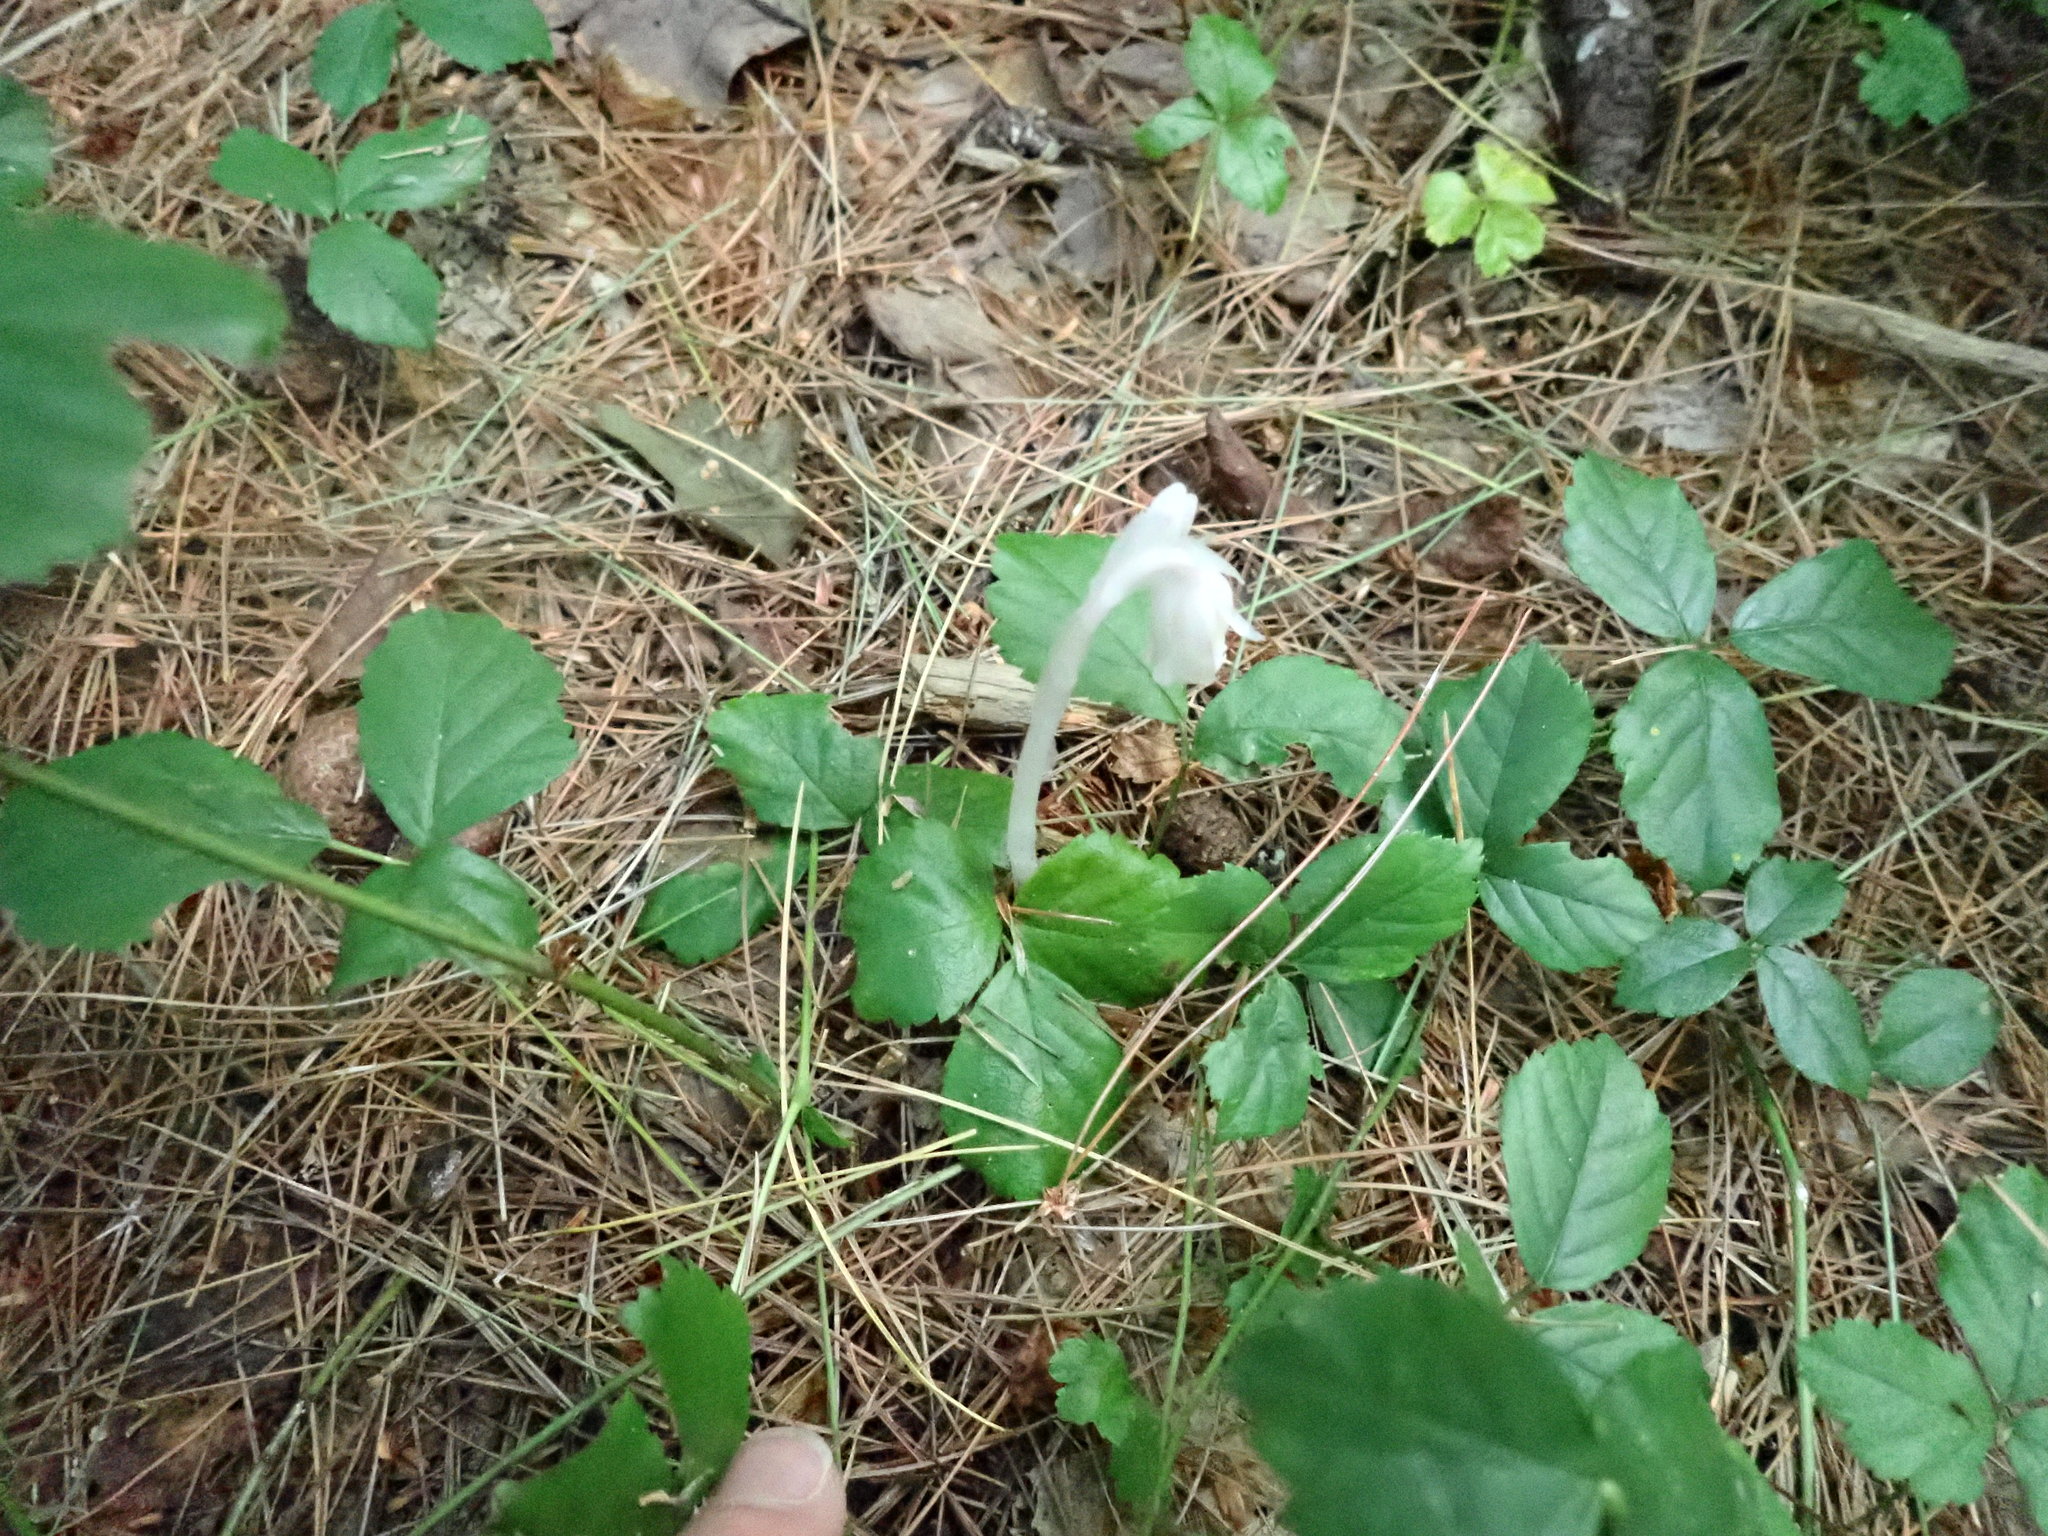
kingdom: Plantae
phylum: Tracheophyta
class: Magnoliopsida
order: Ericales
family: Ericaceae
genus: Monotropa
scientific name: Monotropa uniflora
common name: Convulsion root
